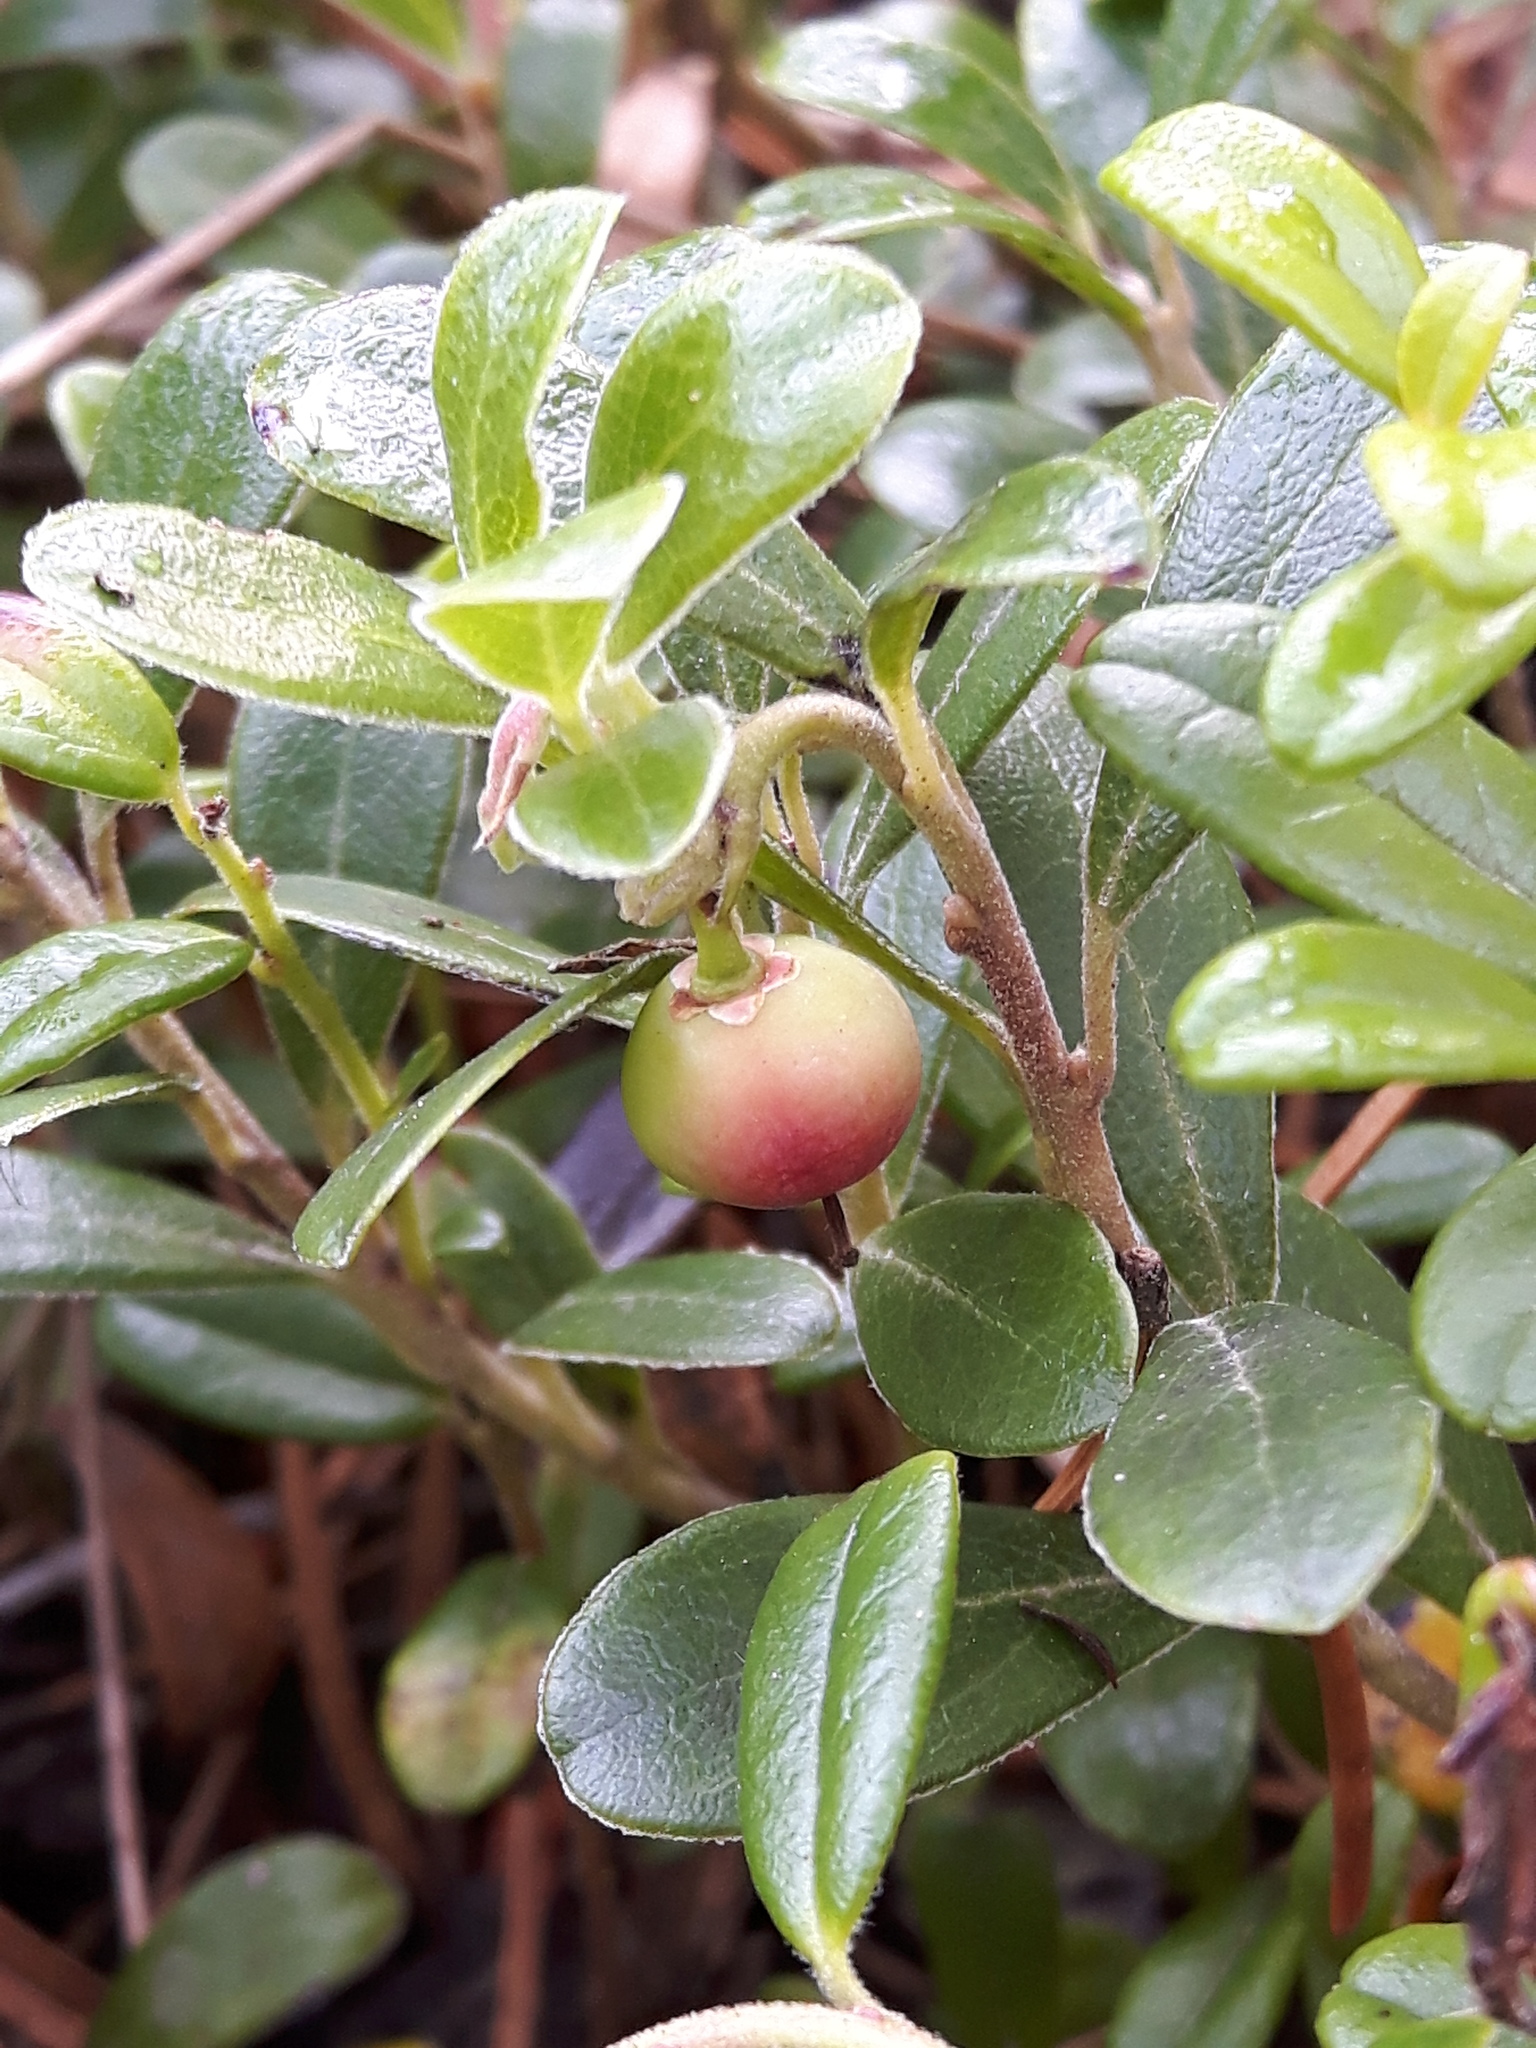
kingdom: Plantae
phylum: Tracheophyta
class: Magnoliopsida
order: Ericales
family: Ericaceae
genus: Arctostaphylos
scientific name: Arctostaphylos uva-ursi
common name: Bearberry
